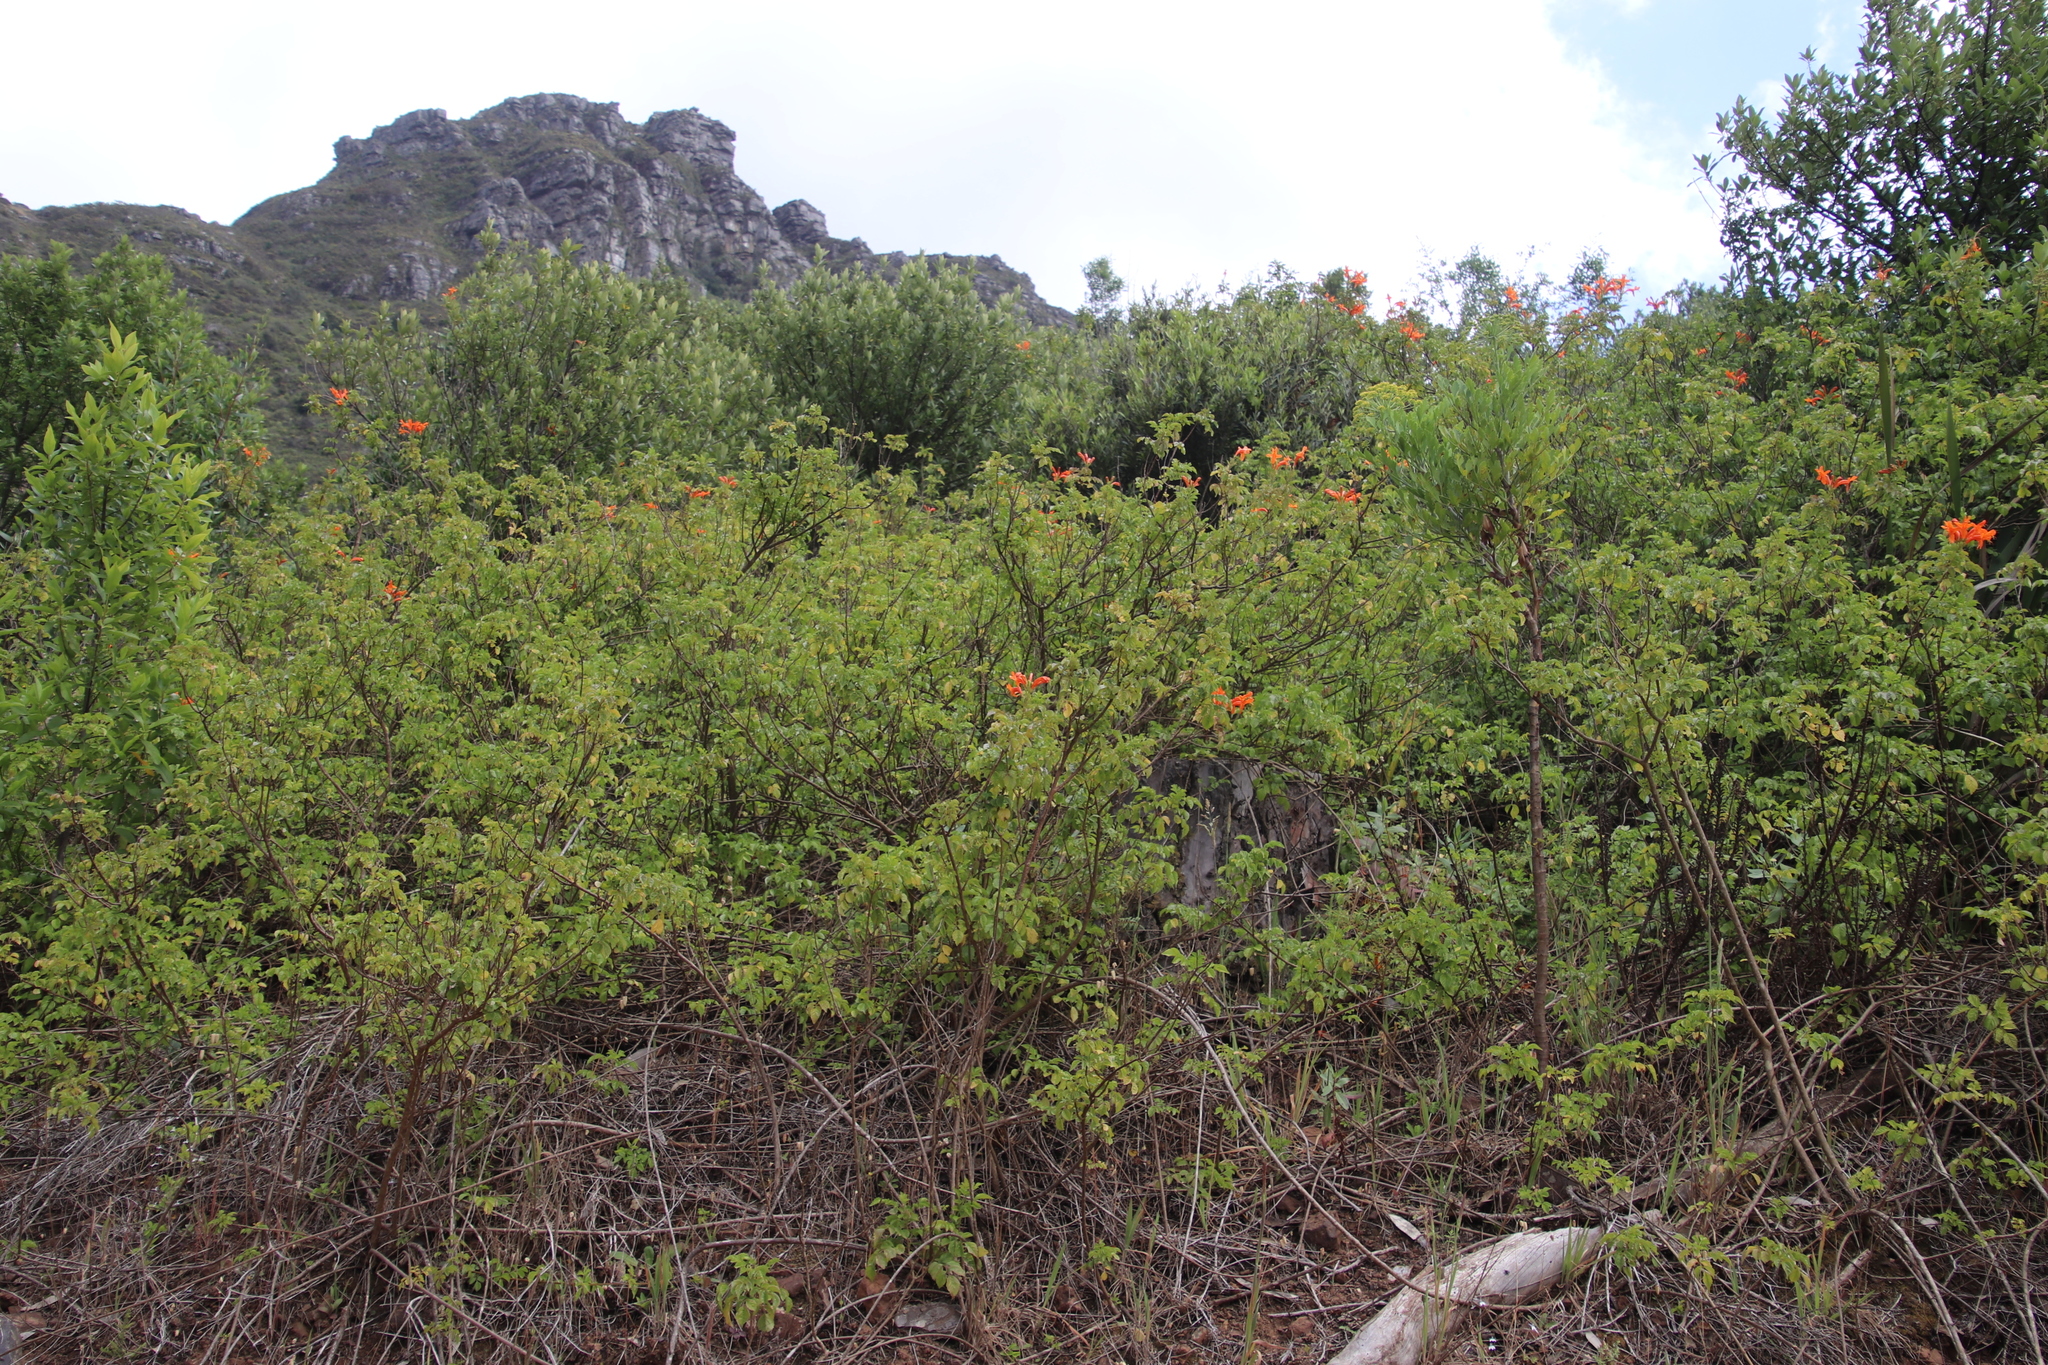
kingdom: Plantae
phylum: Tracheophyta
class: Magnoliopsida
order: Lamiales
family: Bignoniaceae
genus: Tecomaria
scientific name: Tecomaria capensis
